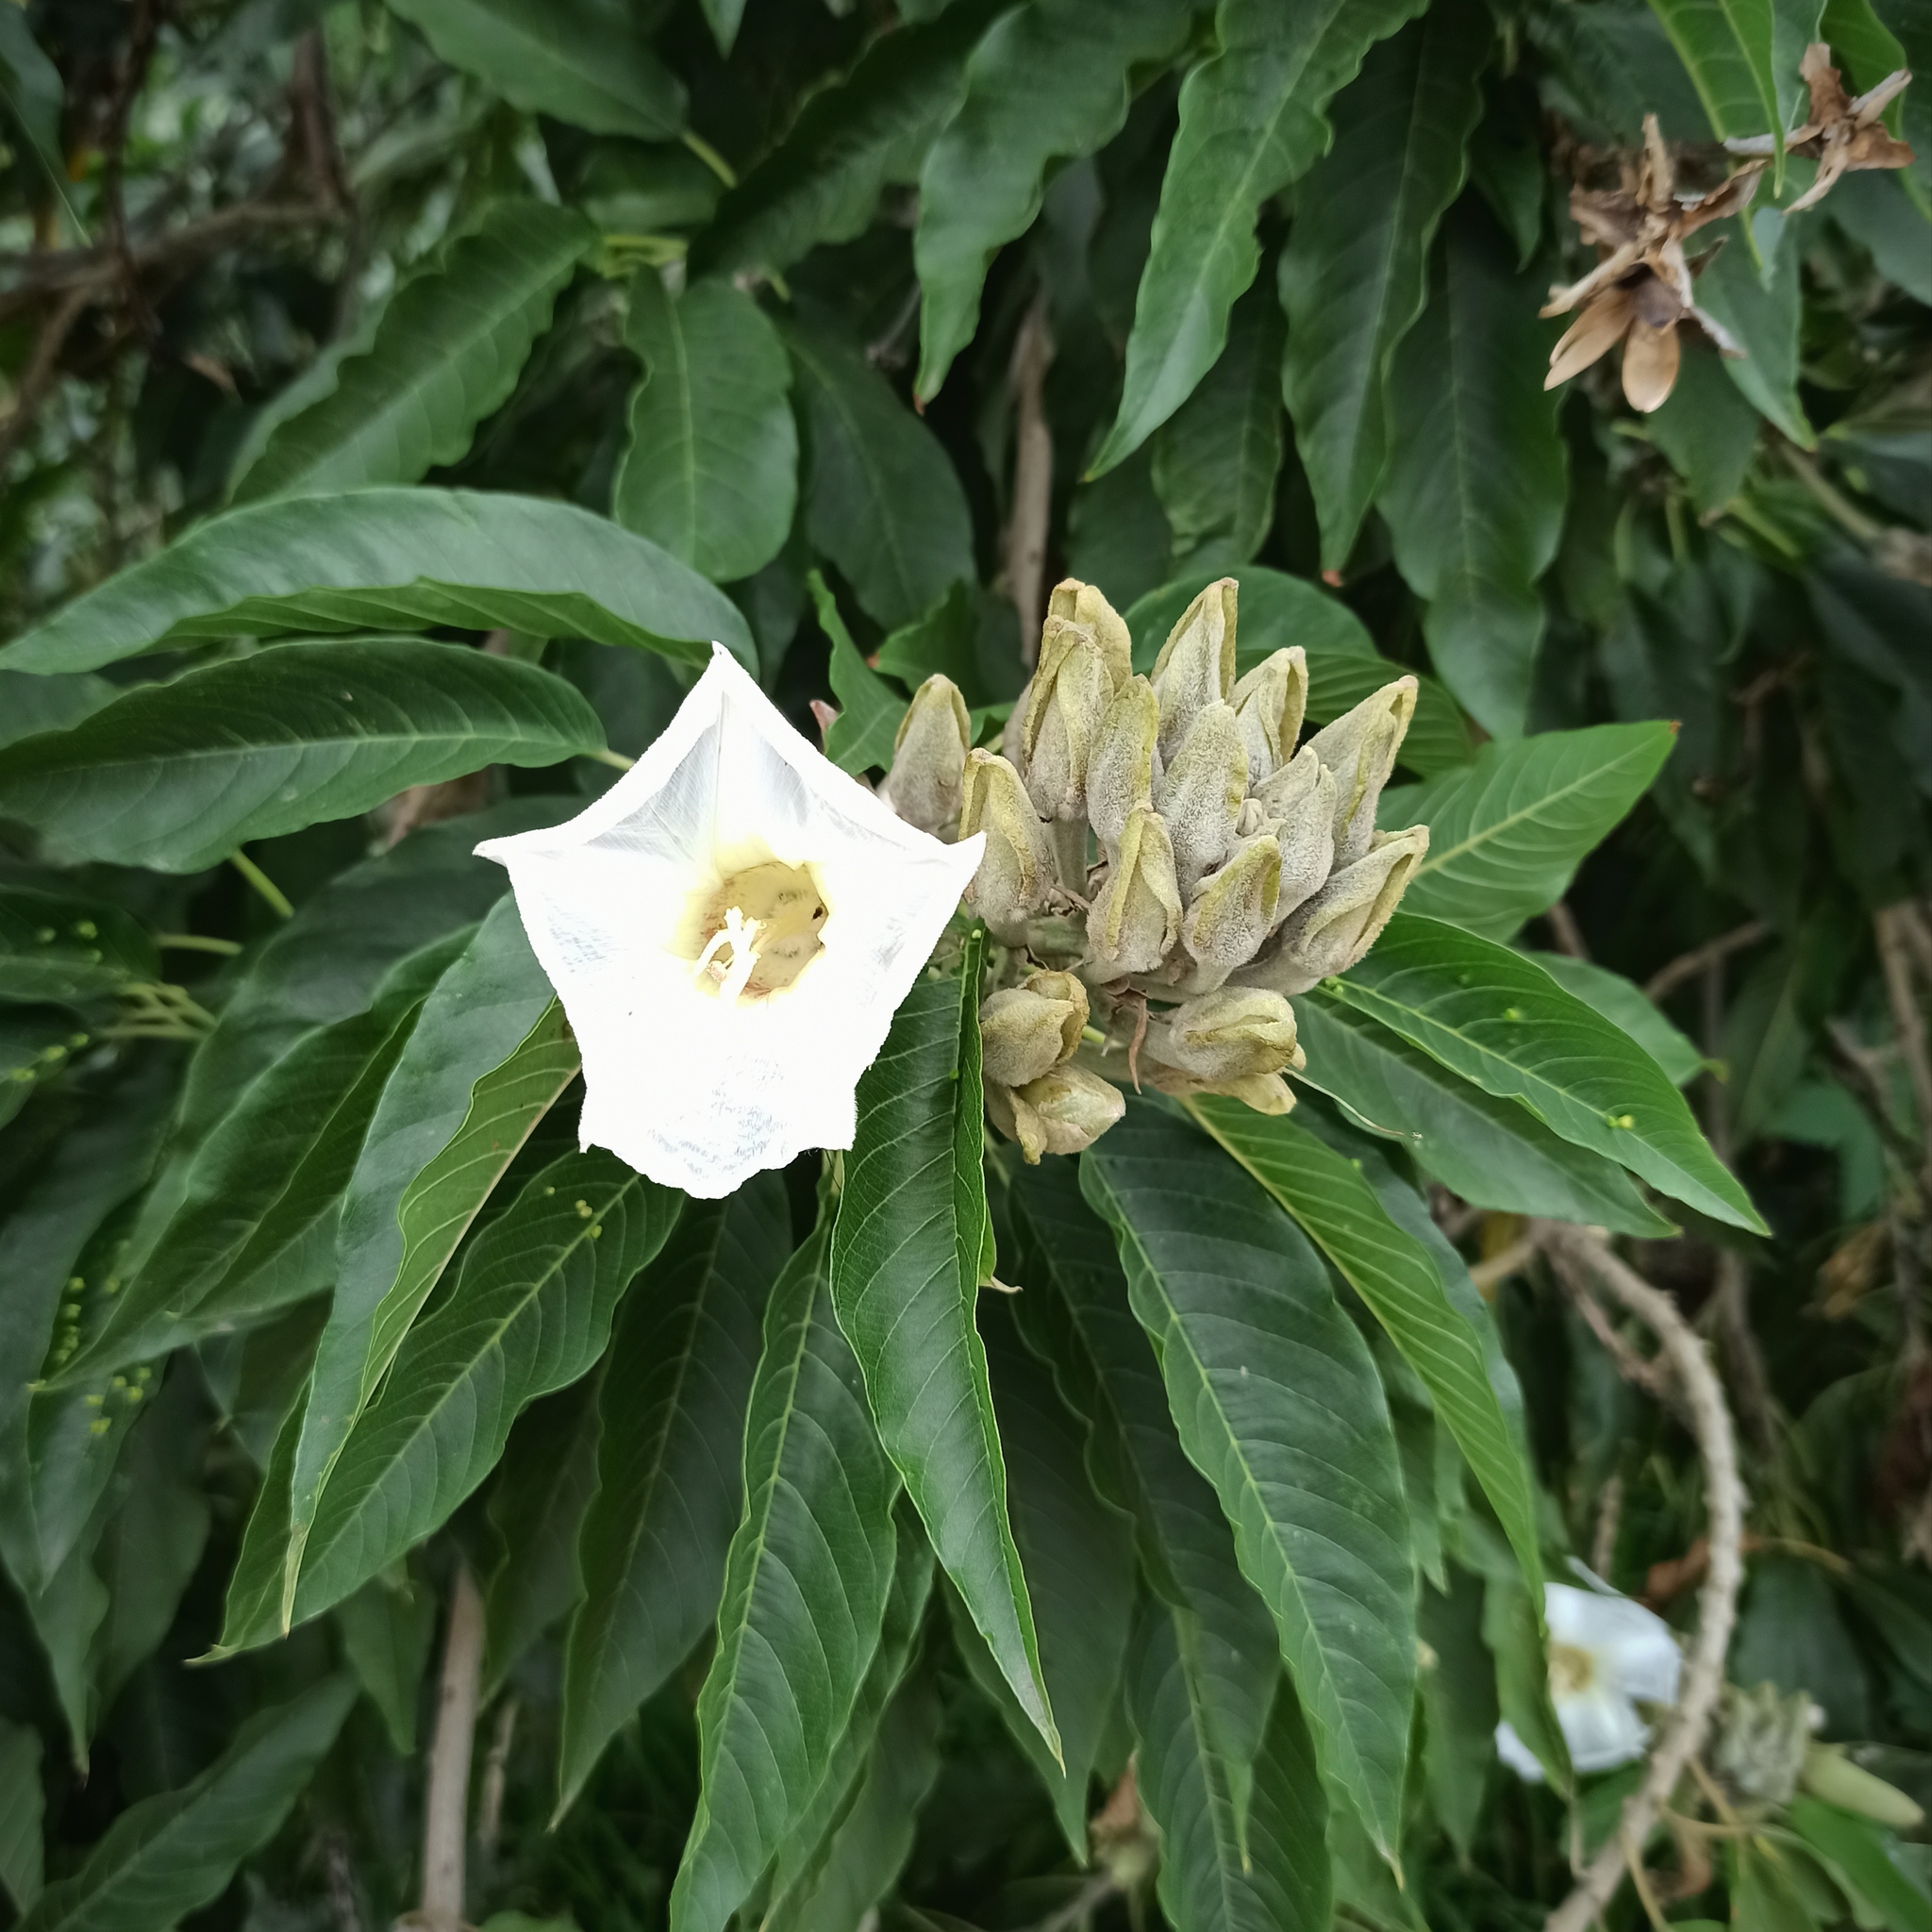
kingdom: Plantae
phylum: Tracheophyta
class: Magnoliopsida
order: Solanales
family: Convolvulaceae
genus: Ipomoea
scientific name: Ipomoea murucoides
